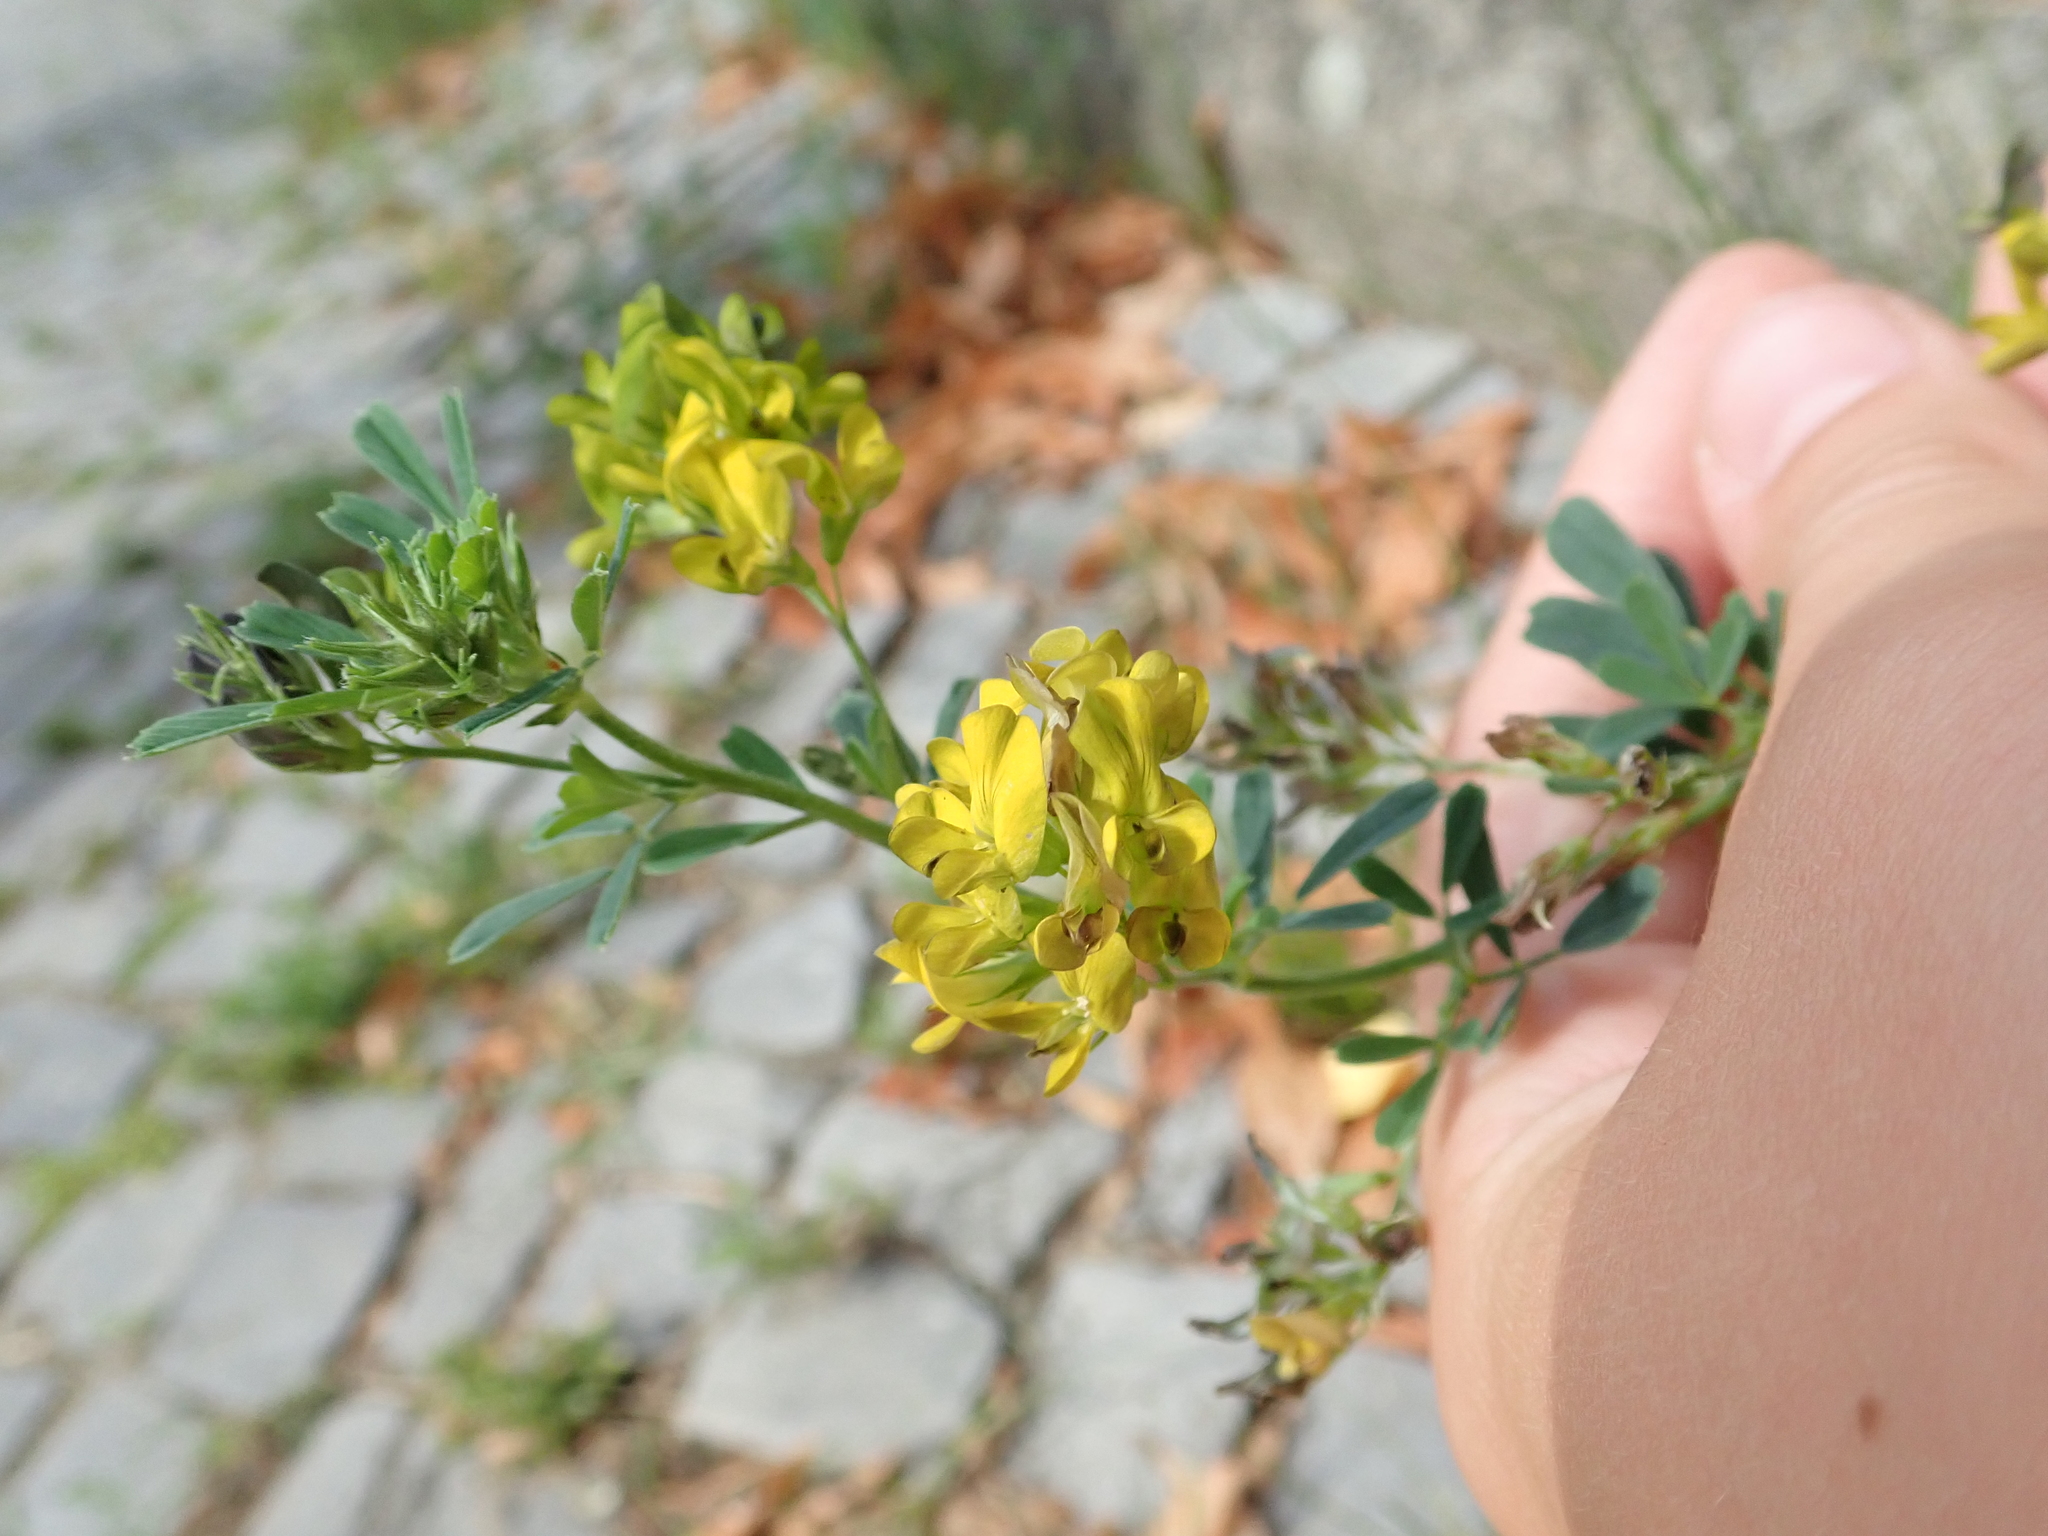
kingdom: Plantae
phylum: Tracheophyta
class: Magnoliopsida
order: Fabales
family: Fabaceae
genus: Medicago
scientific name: Medicago falcata
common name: Sickle medick
